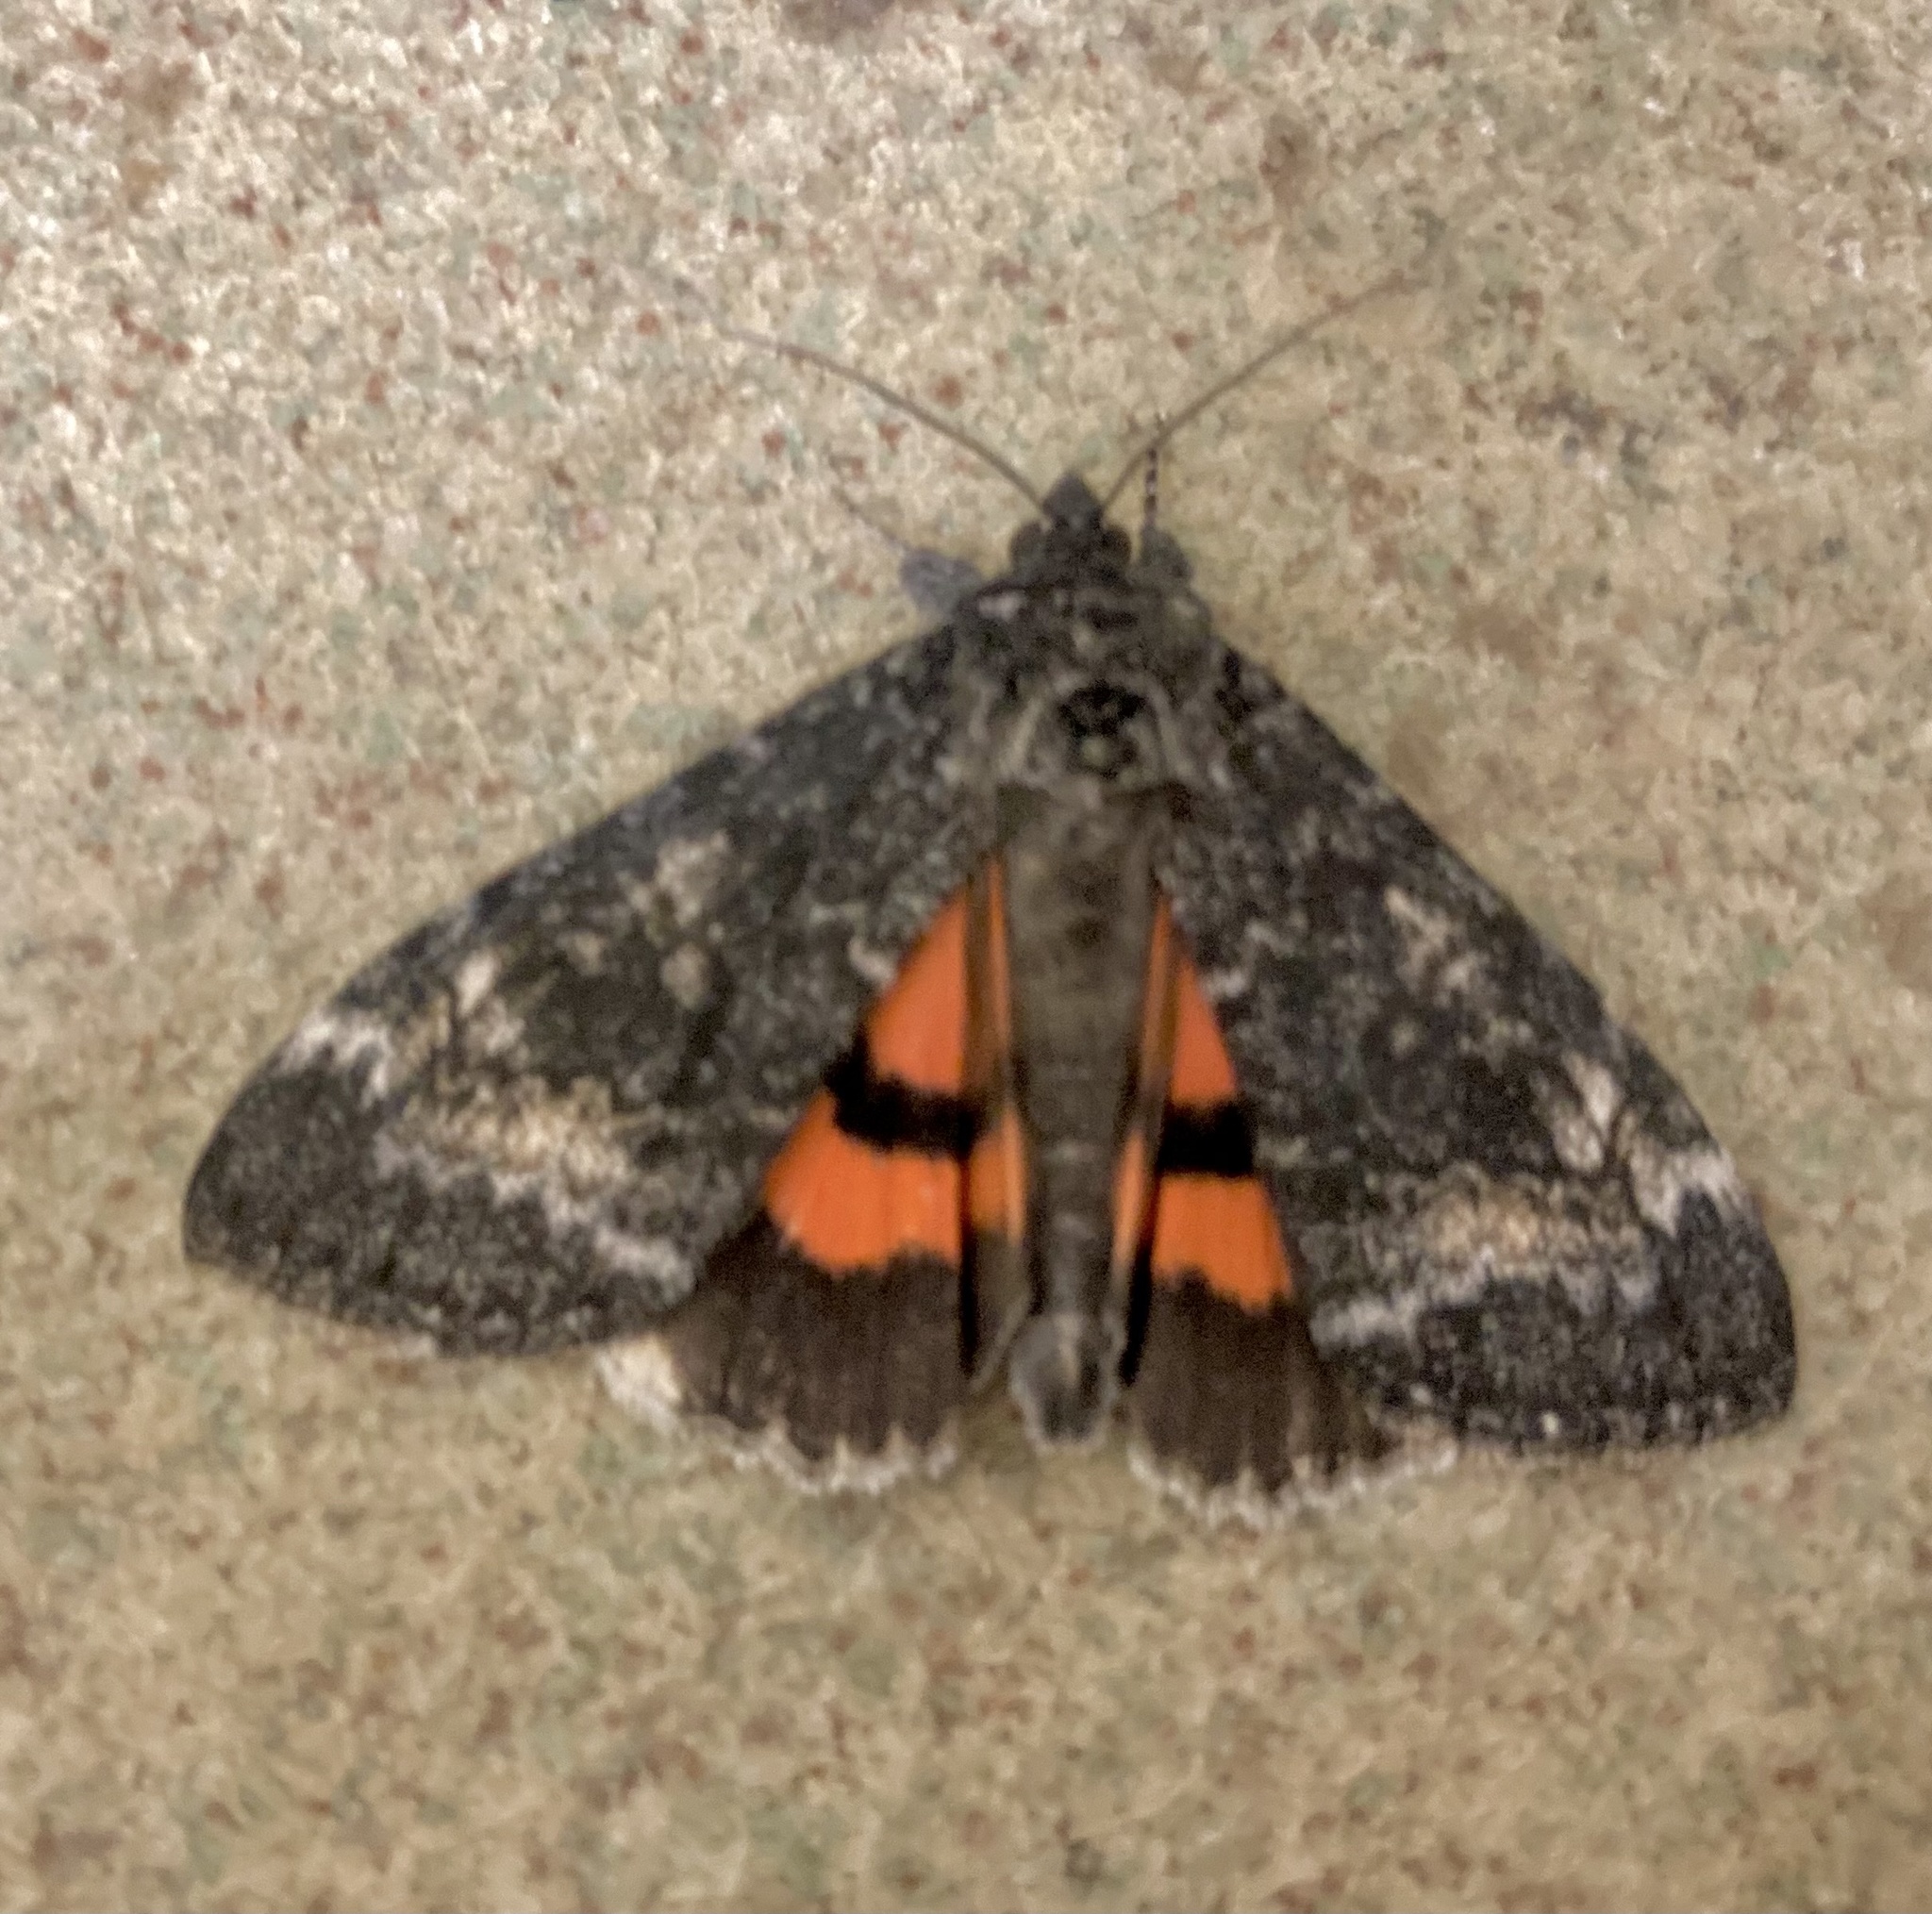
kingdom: Animalia
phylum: Arthropoda
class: Insecta
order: Lepidoptera
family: Erebidae
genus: Catocala
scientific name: Catocala briseis
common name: Briseis underwing
